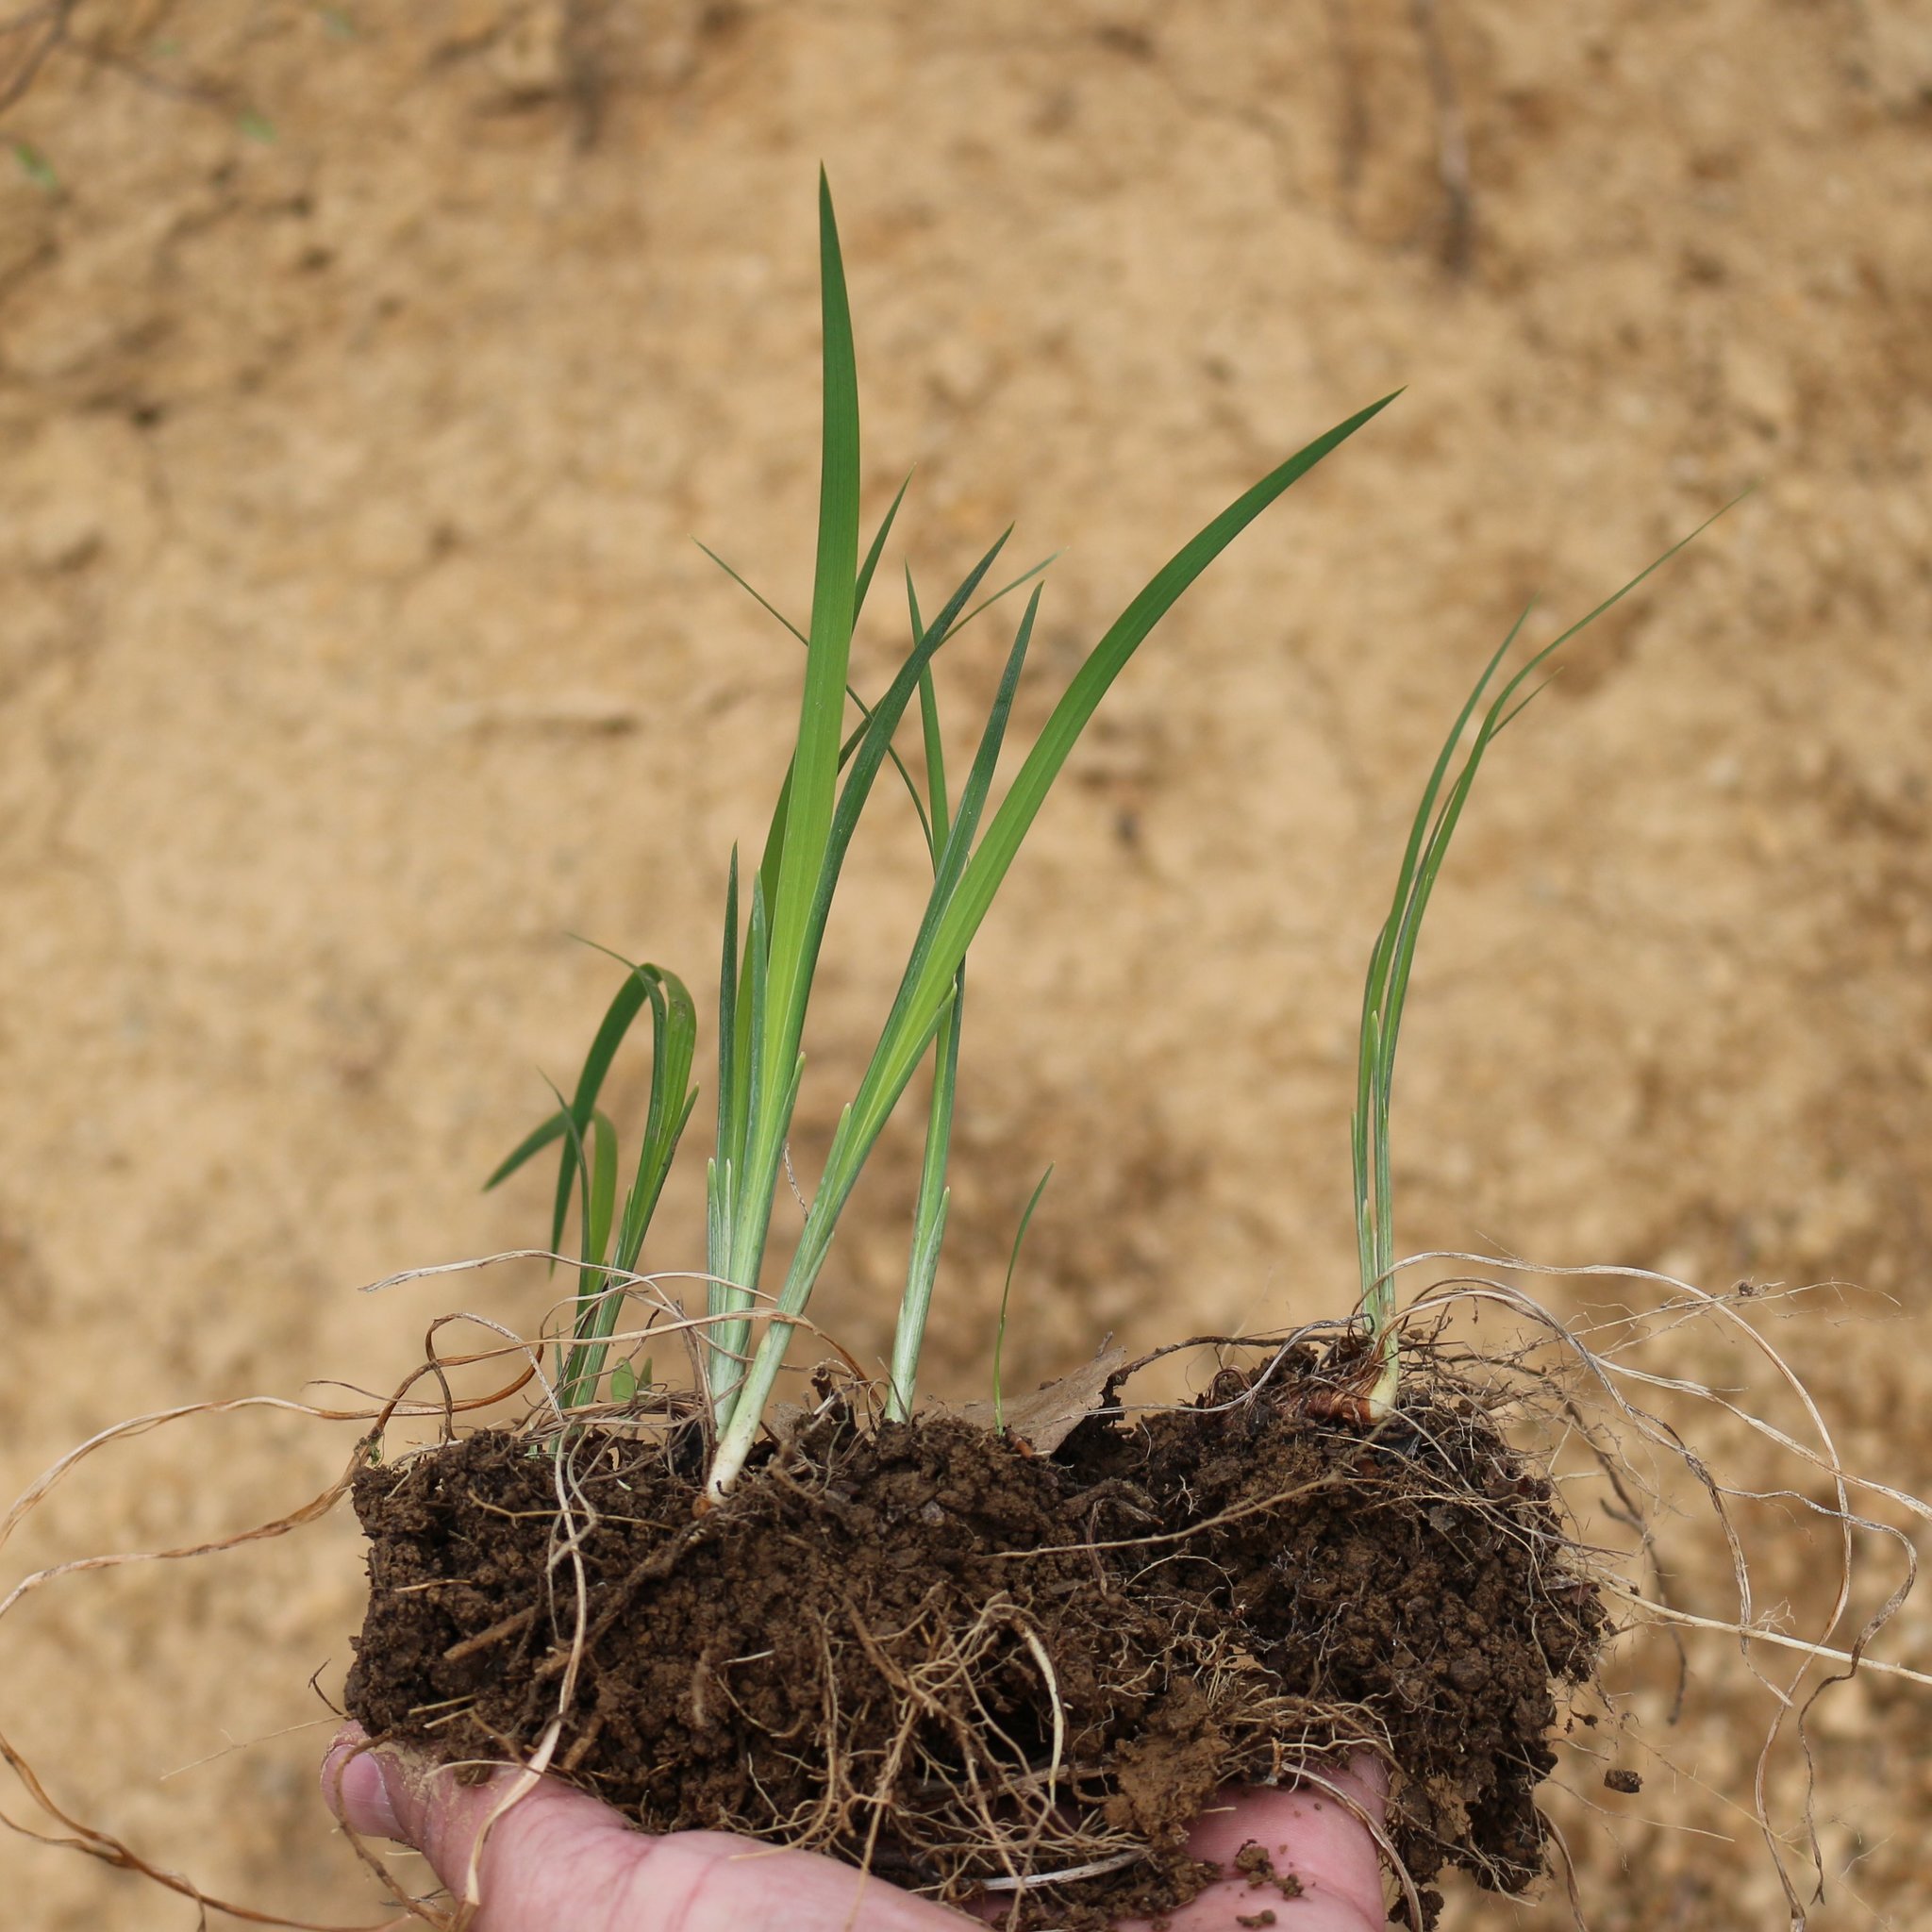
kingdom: Plantae
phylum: Tracheophyta
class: Liliopsida
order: Asparagales
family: Iridaceae
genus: Iris
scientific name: Iris colchica
